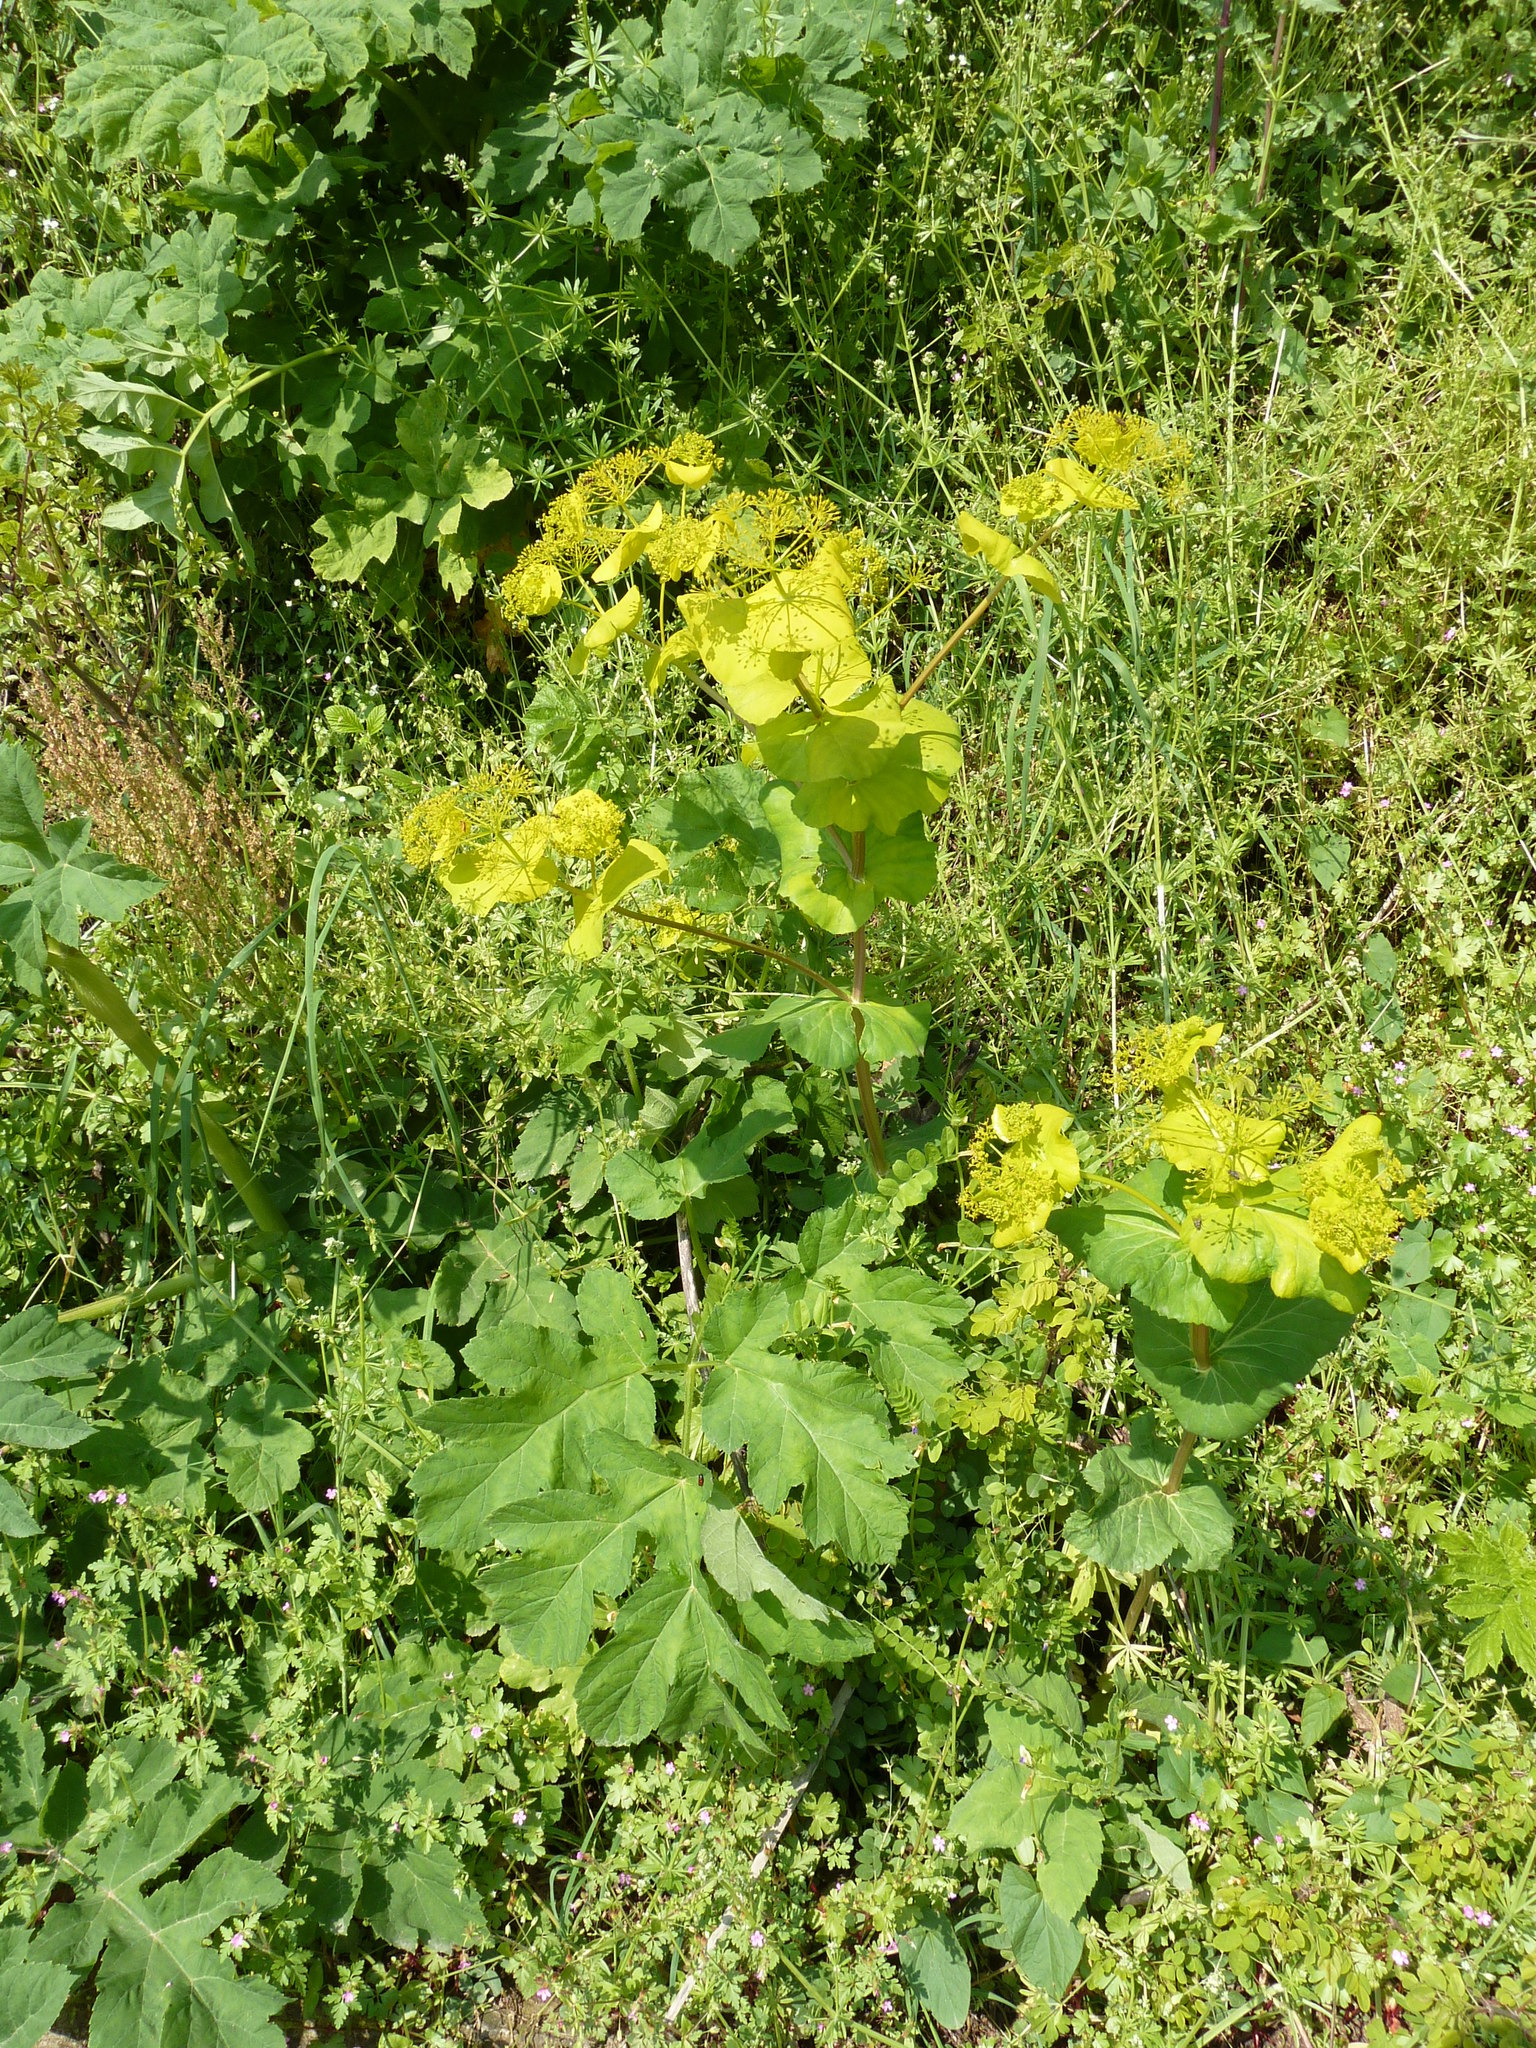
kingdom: Plantae
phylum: Tracheophyta
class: Magnoliopsida
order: Apiales
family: Apiaceae
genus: Smyrnium
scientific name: Smyrnium perfoliatum
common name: Perfoliate alexanders
